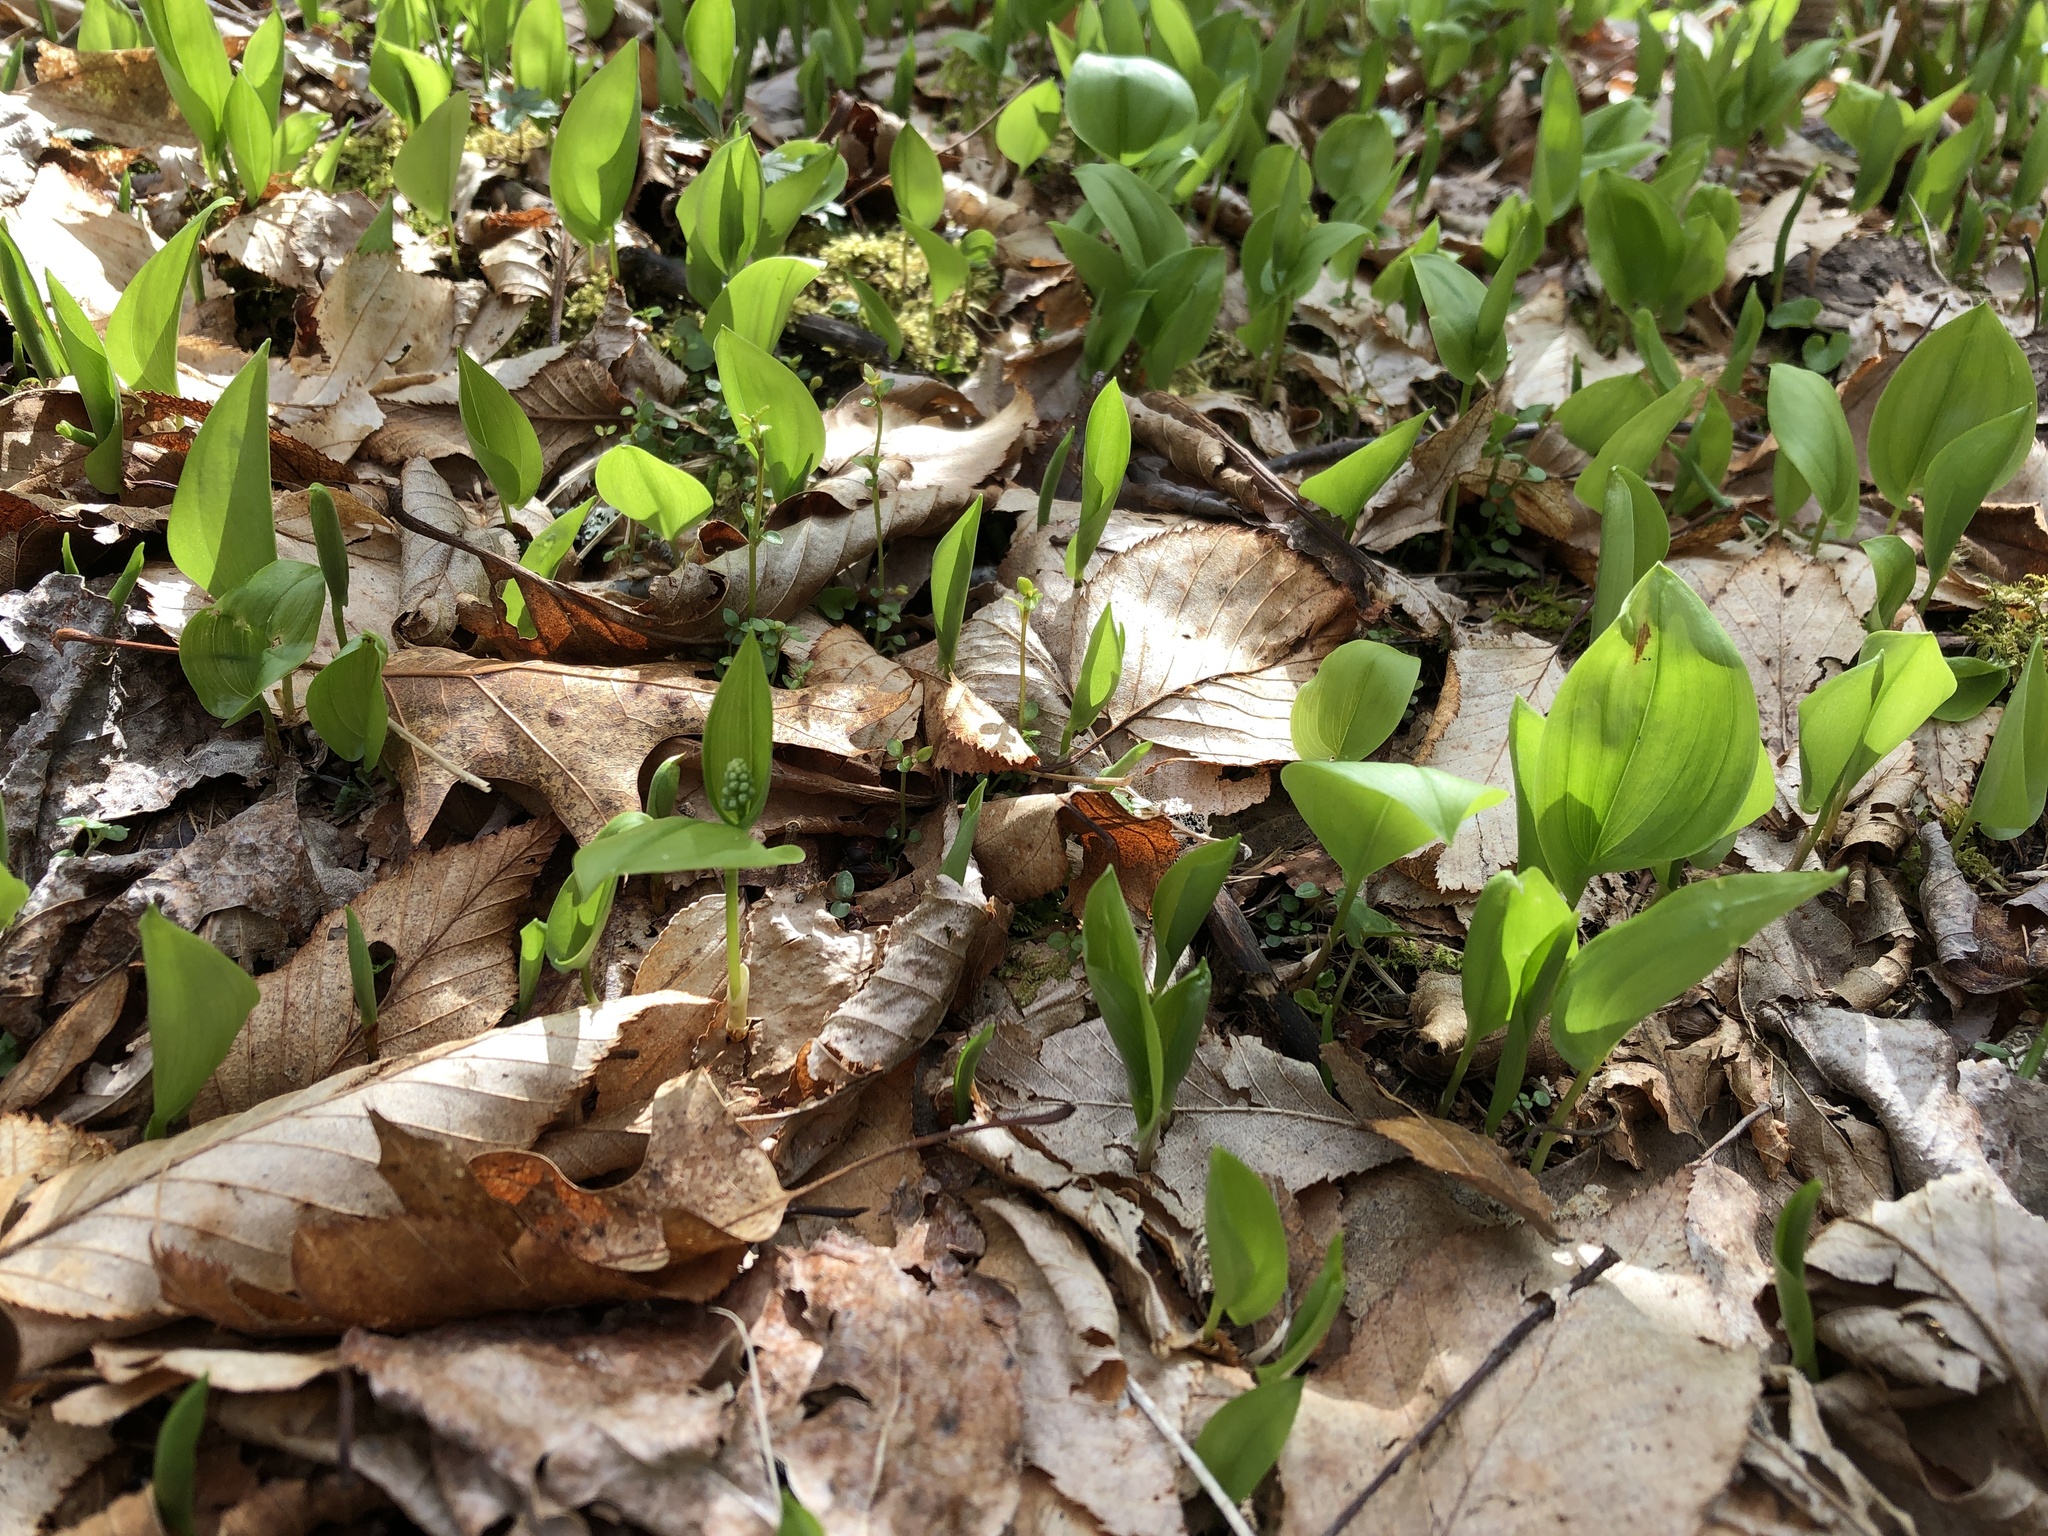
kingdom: Plantae
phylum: Tracheophyta
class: Liliopsida
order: Asparagales
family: Asparagaceae
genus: Maianthemum
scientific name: Maianthemum canadense
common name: False lily-of-the-valley
